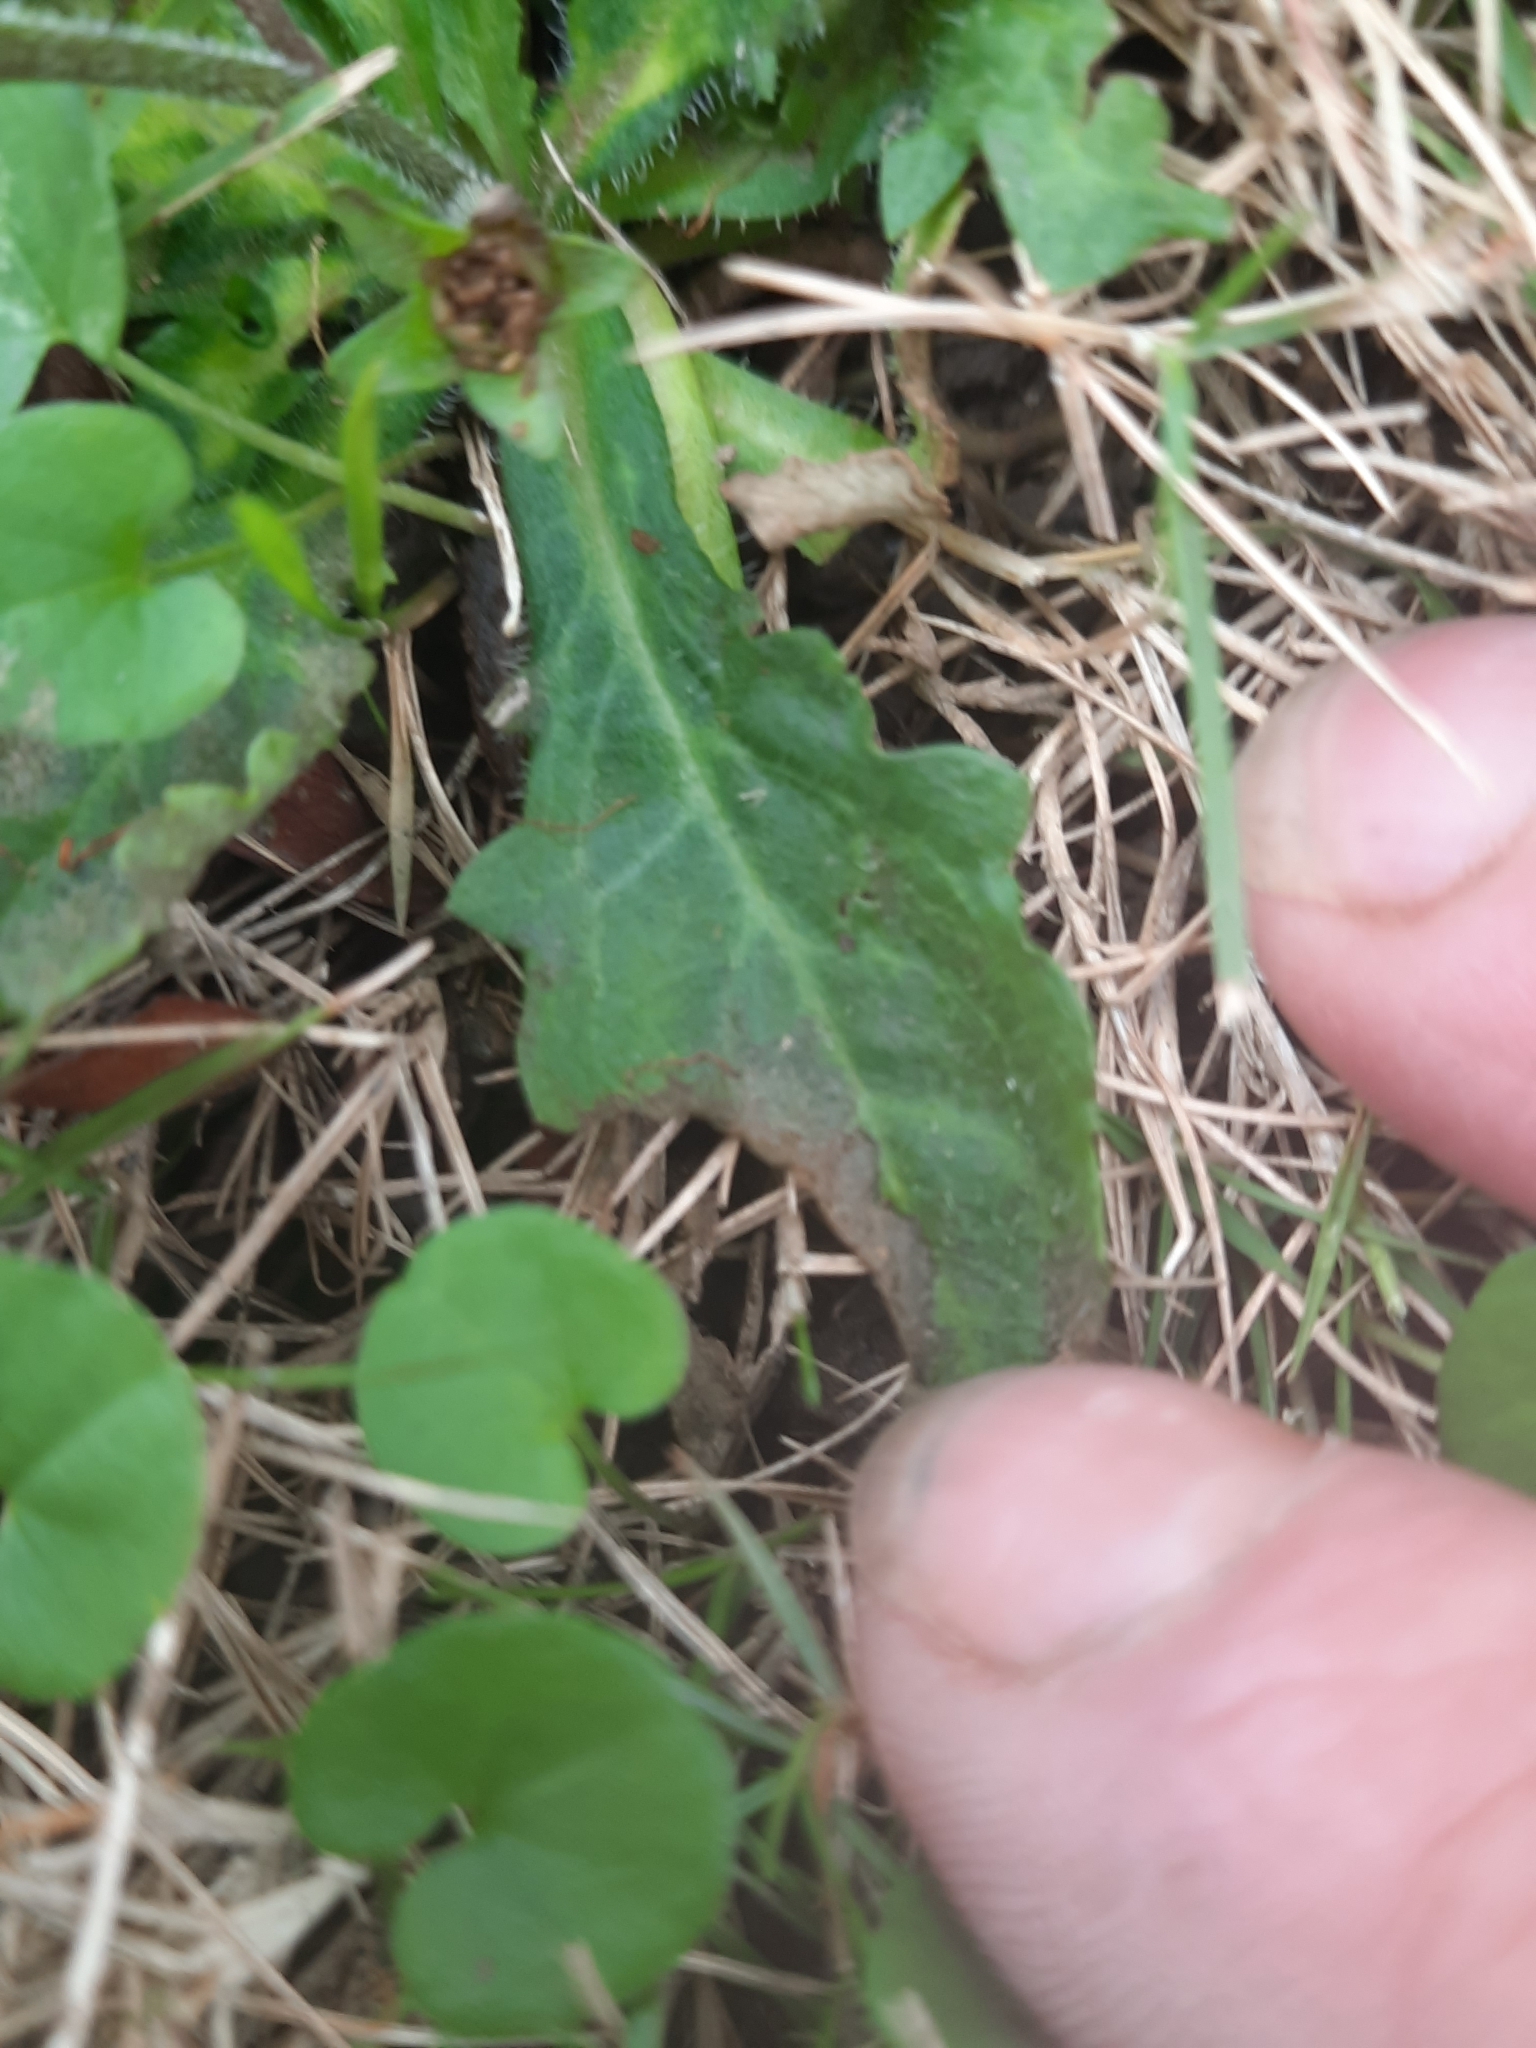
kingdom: Plantae
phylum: Tracheophyta
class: Magnoliopsida
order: Lamiales
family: Mazaceae
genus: Mazus
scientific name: Mazus pumilus
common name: Japanese mazus
